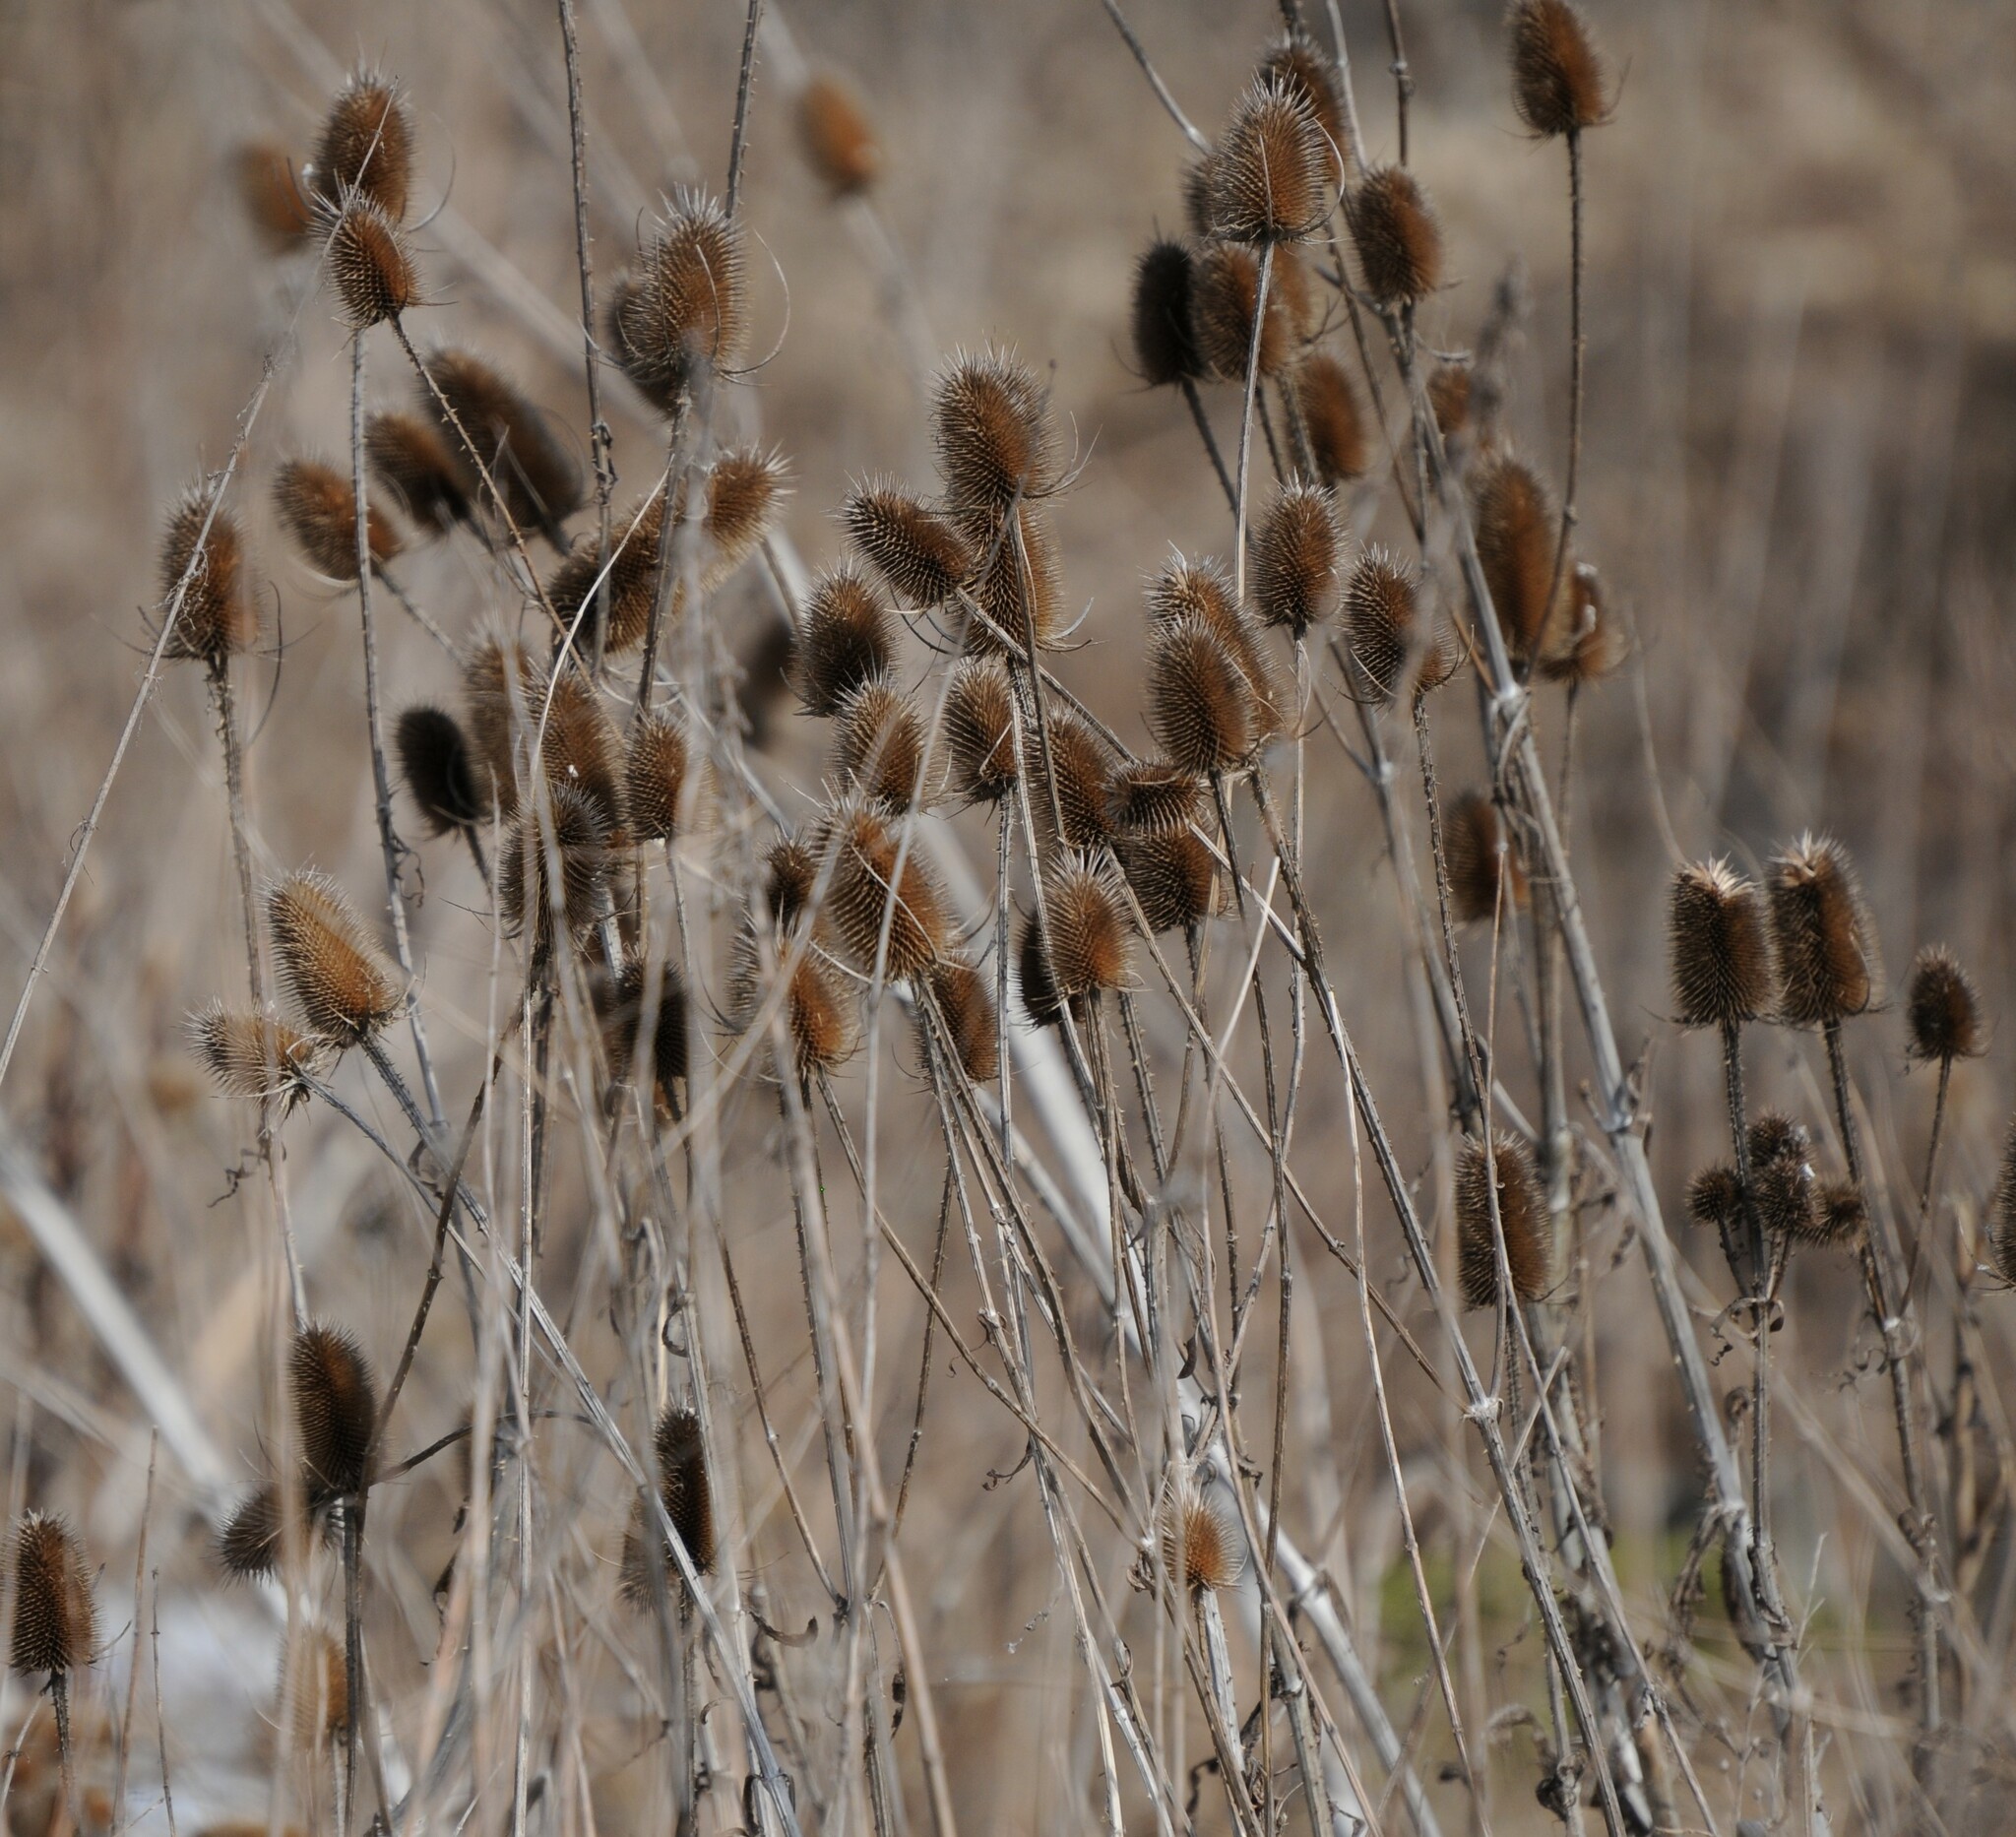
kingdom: Plantae
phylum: Tracheophyta
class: Magnoliopsida
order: Dipsacales
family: Caprifoliaceae
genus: Dipsacus
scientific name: Dipsacus fullonum
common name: Teasel
